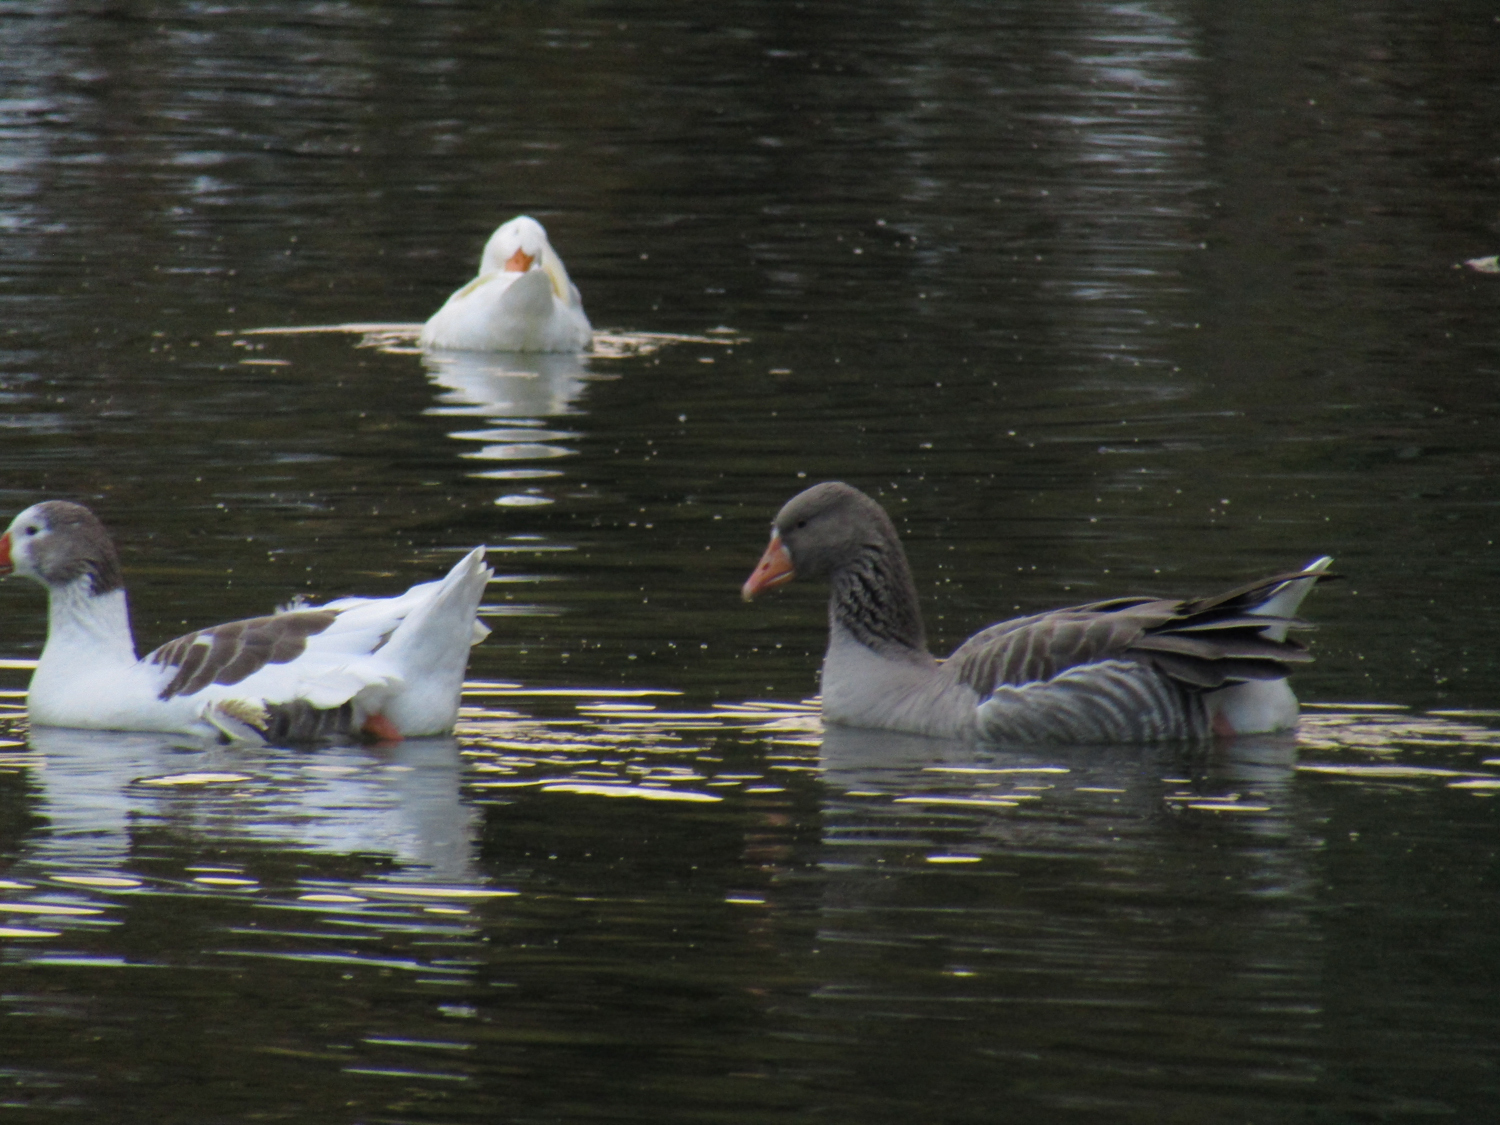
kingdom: Animalia
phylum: Chordata
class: Aves
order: Anseriformes
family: Anatidae
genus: Anser
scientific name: Anser anser
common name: Greylag goose
